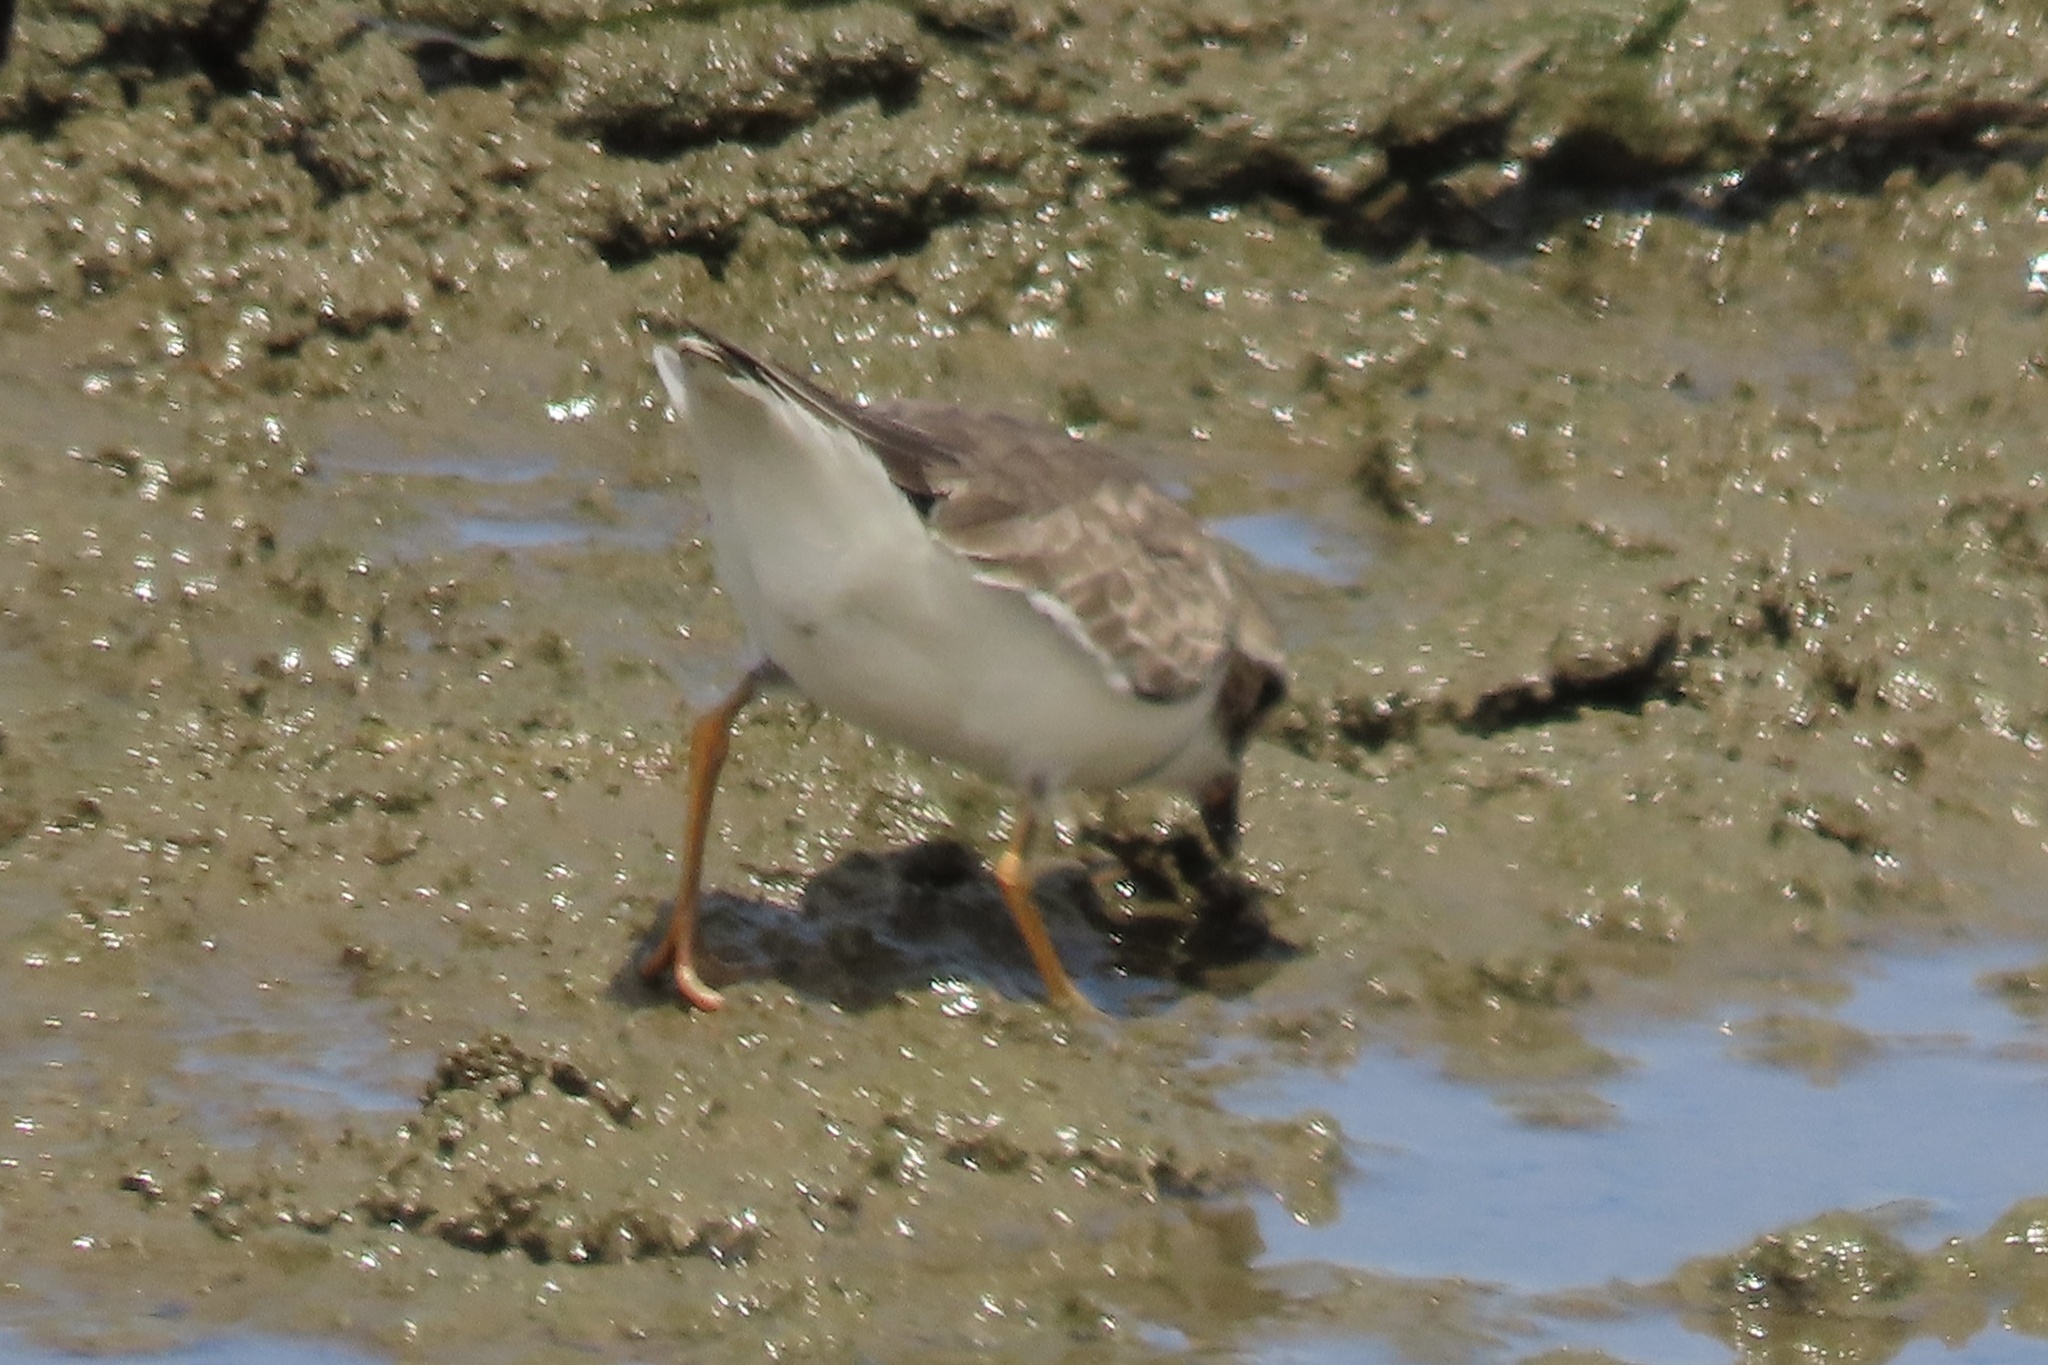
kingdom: Animalia
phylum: Chordata
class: Aves
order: Charadriiformes
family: Charadriidae
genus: Charadrius
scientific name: Charadrius semipalmatus
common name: Semipalmated plover
